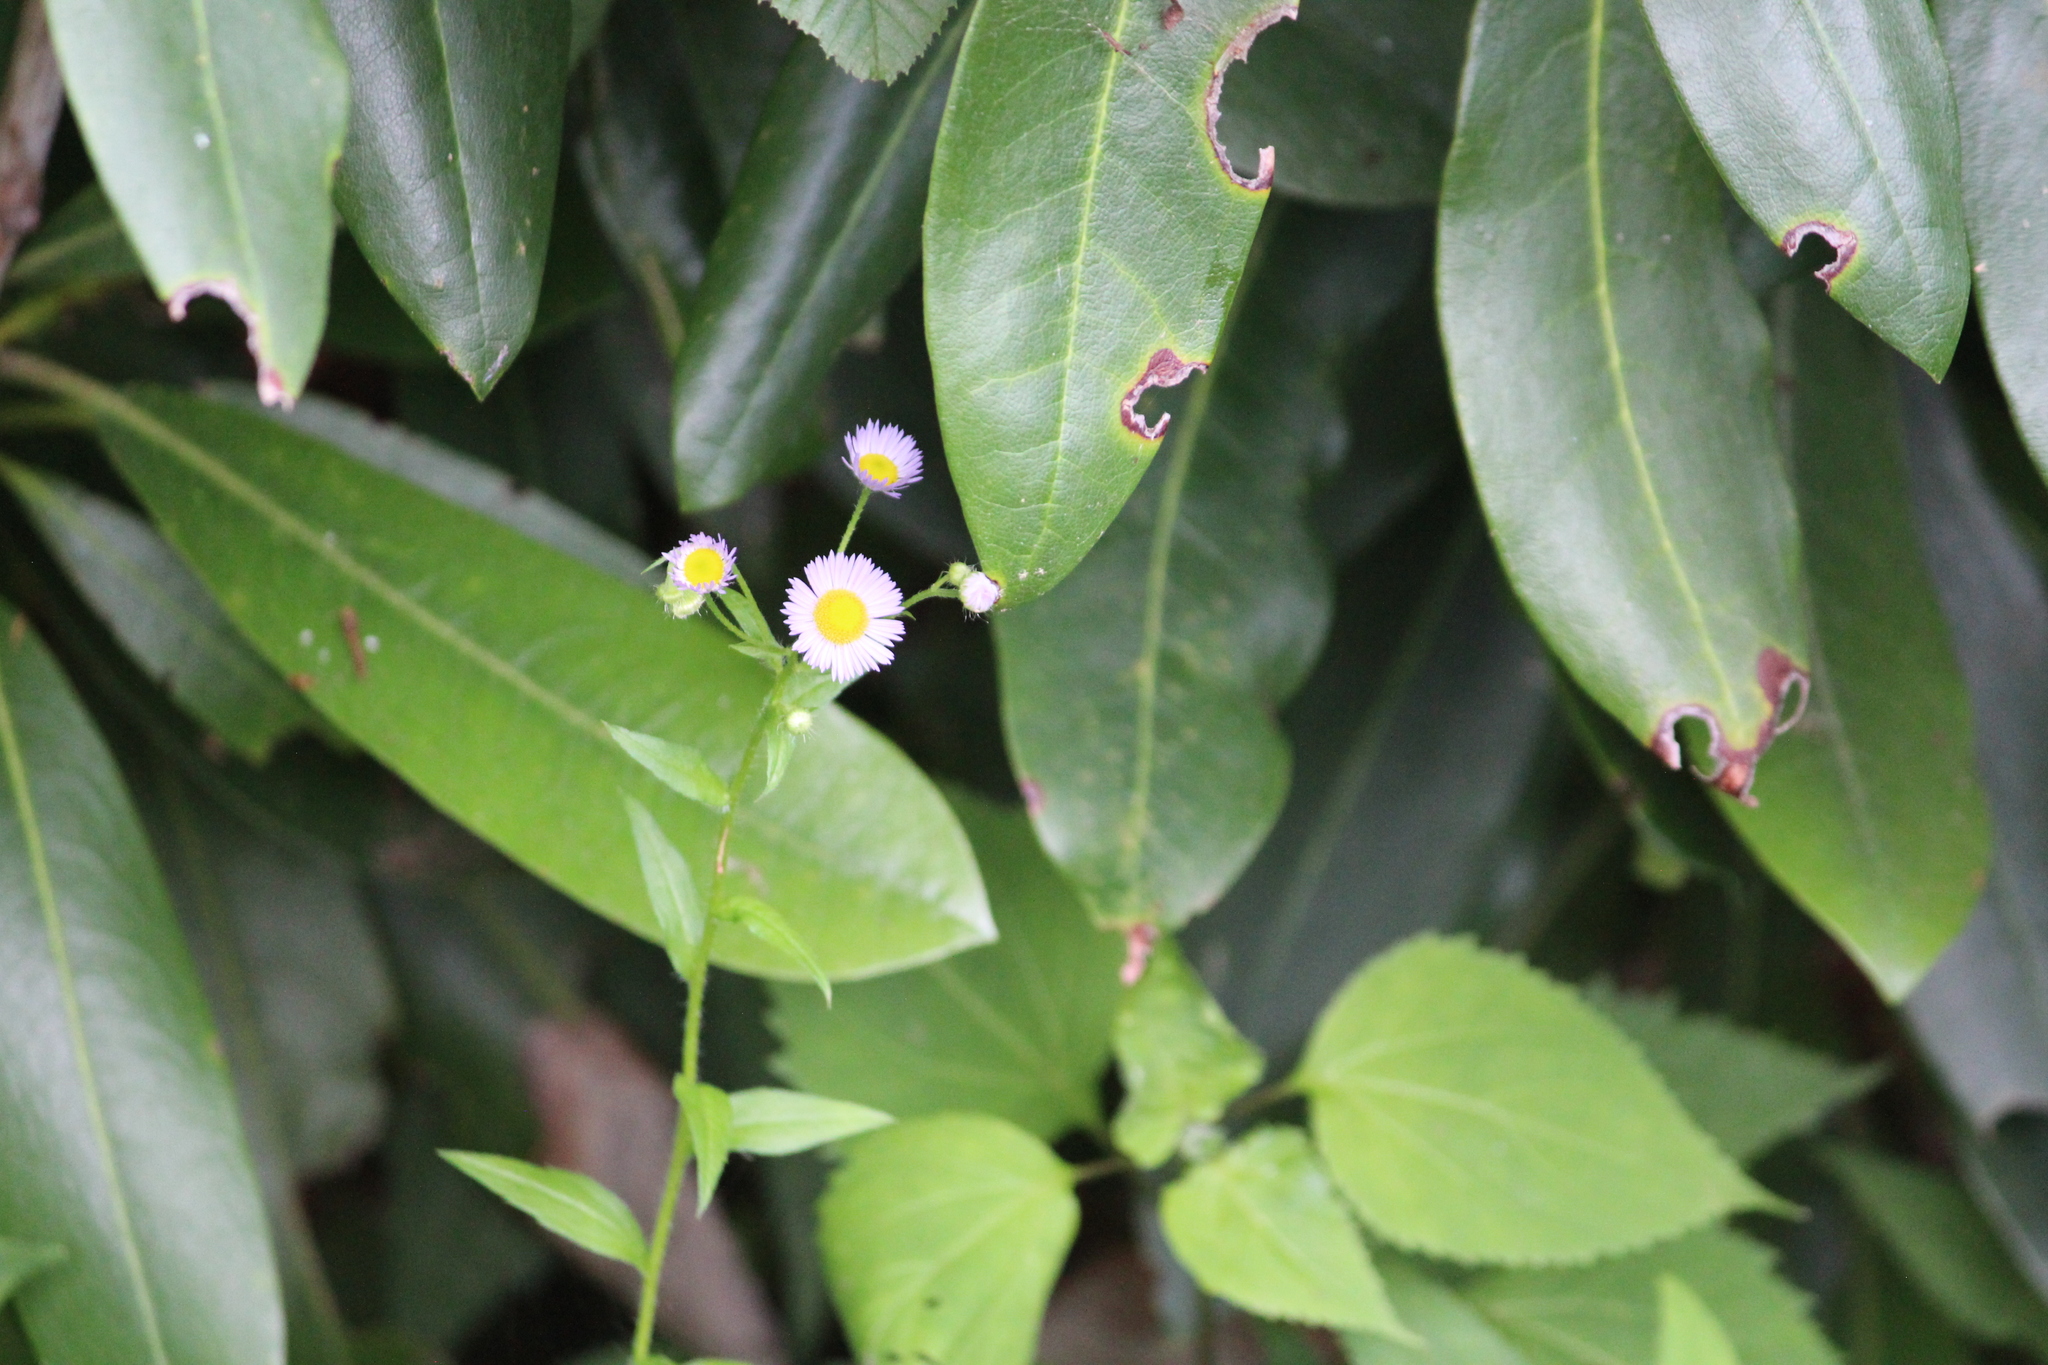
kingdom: Plantae
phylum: Tracheophyta
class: Magnoliopsida
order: Asterales
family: Asteraceae
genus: Erigeron
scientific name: Erigeron annuus
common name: Tall fleabane
